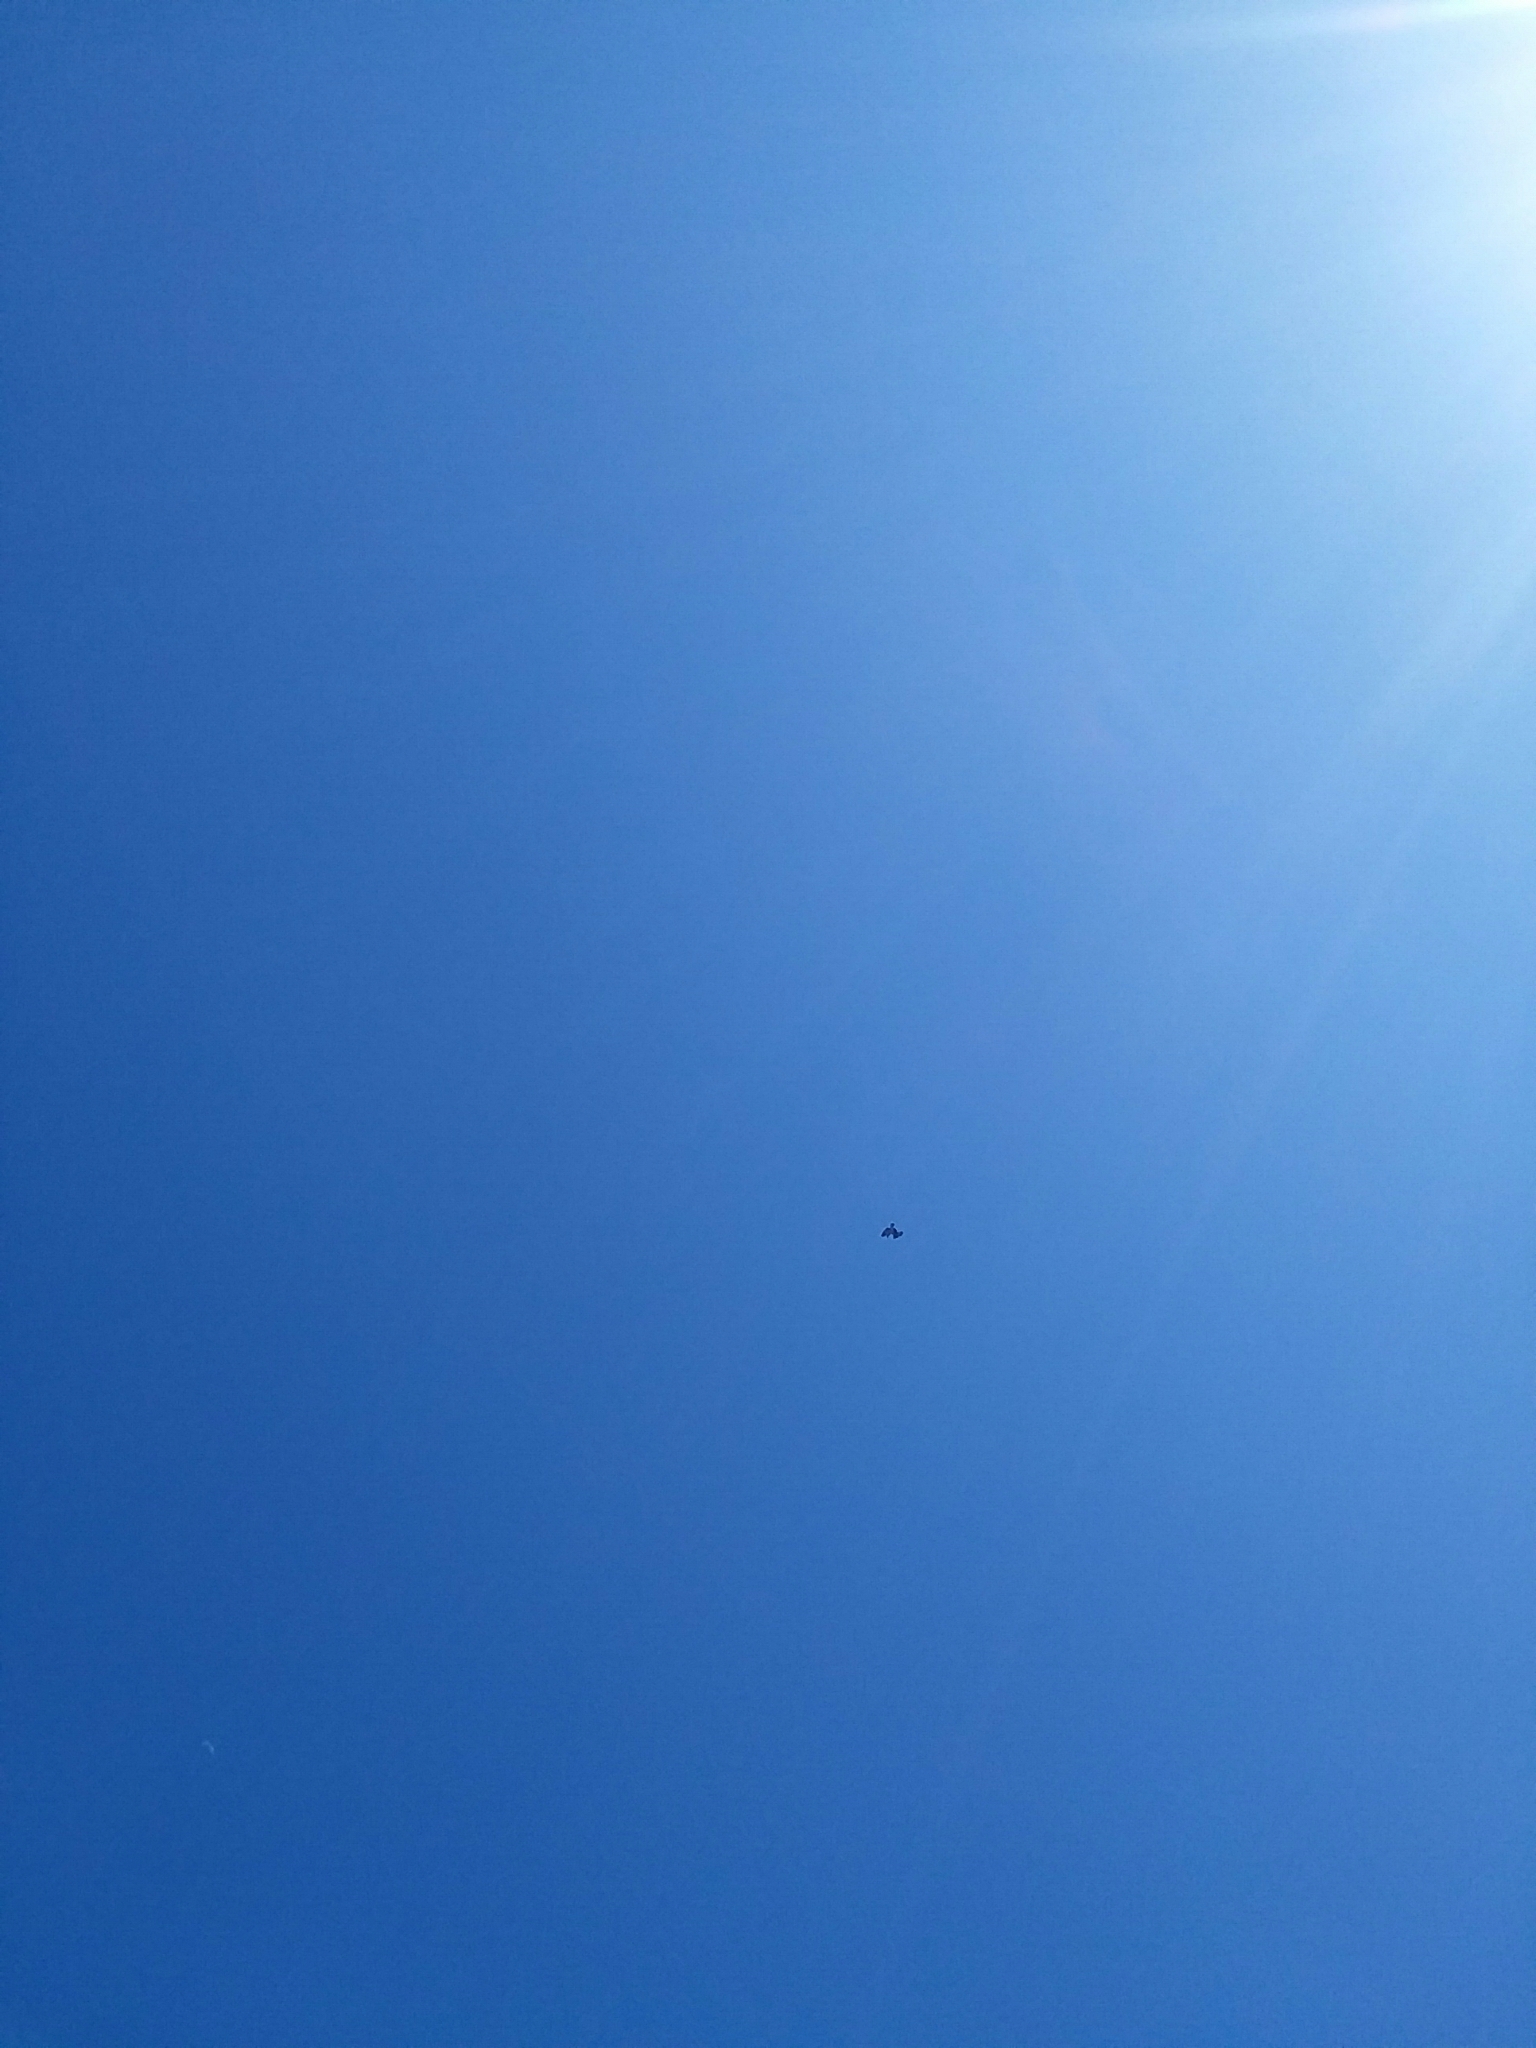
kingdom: Animalia
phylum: Chordata
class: Aves
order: Accipitriformes
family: Pandionidae
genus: Pandion
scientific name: Pandion haliaetus
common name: Osprey
